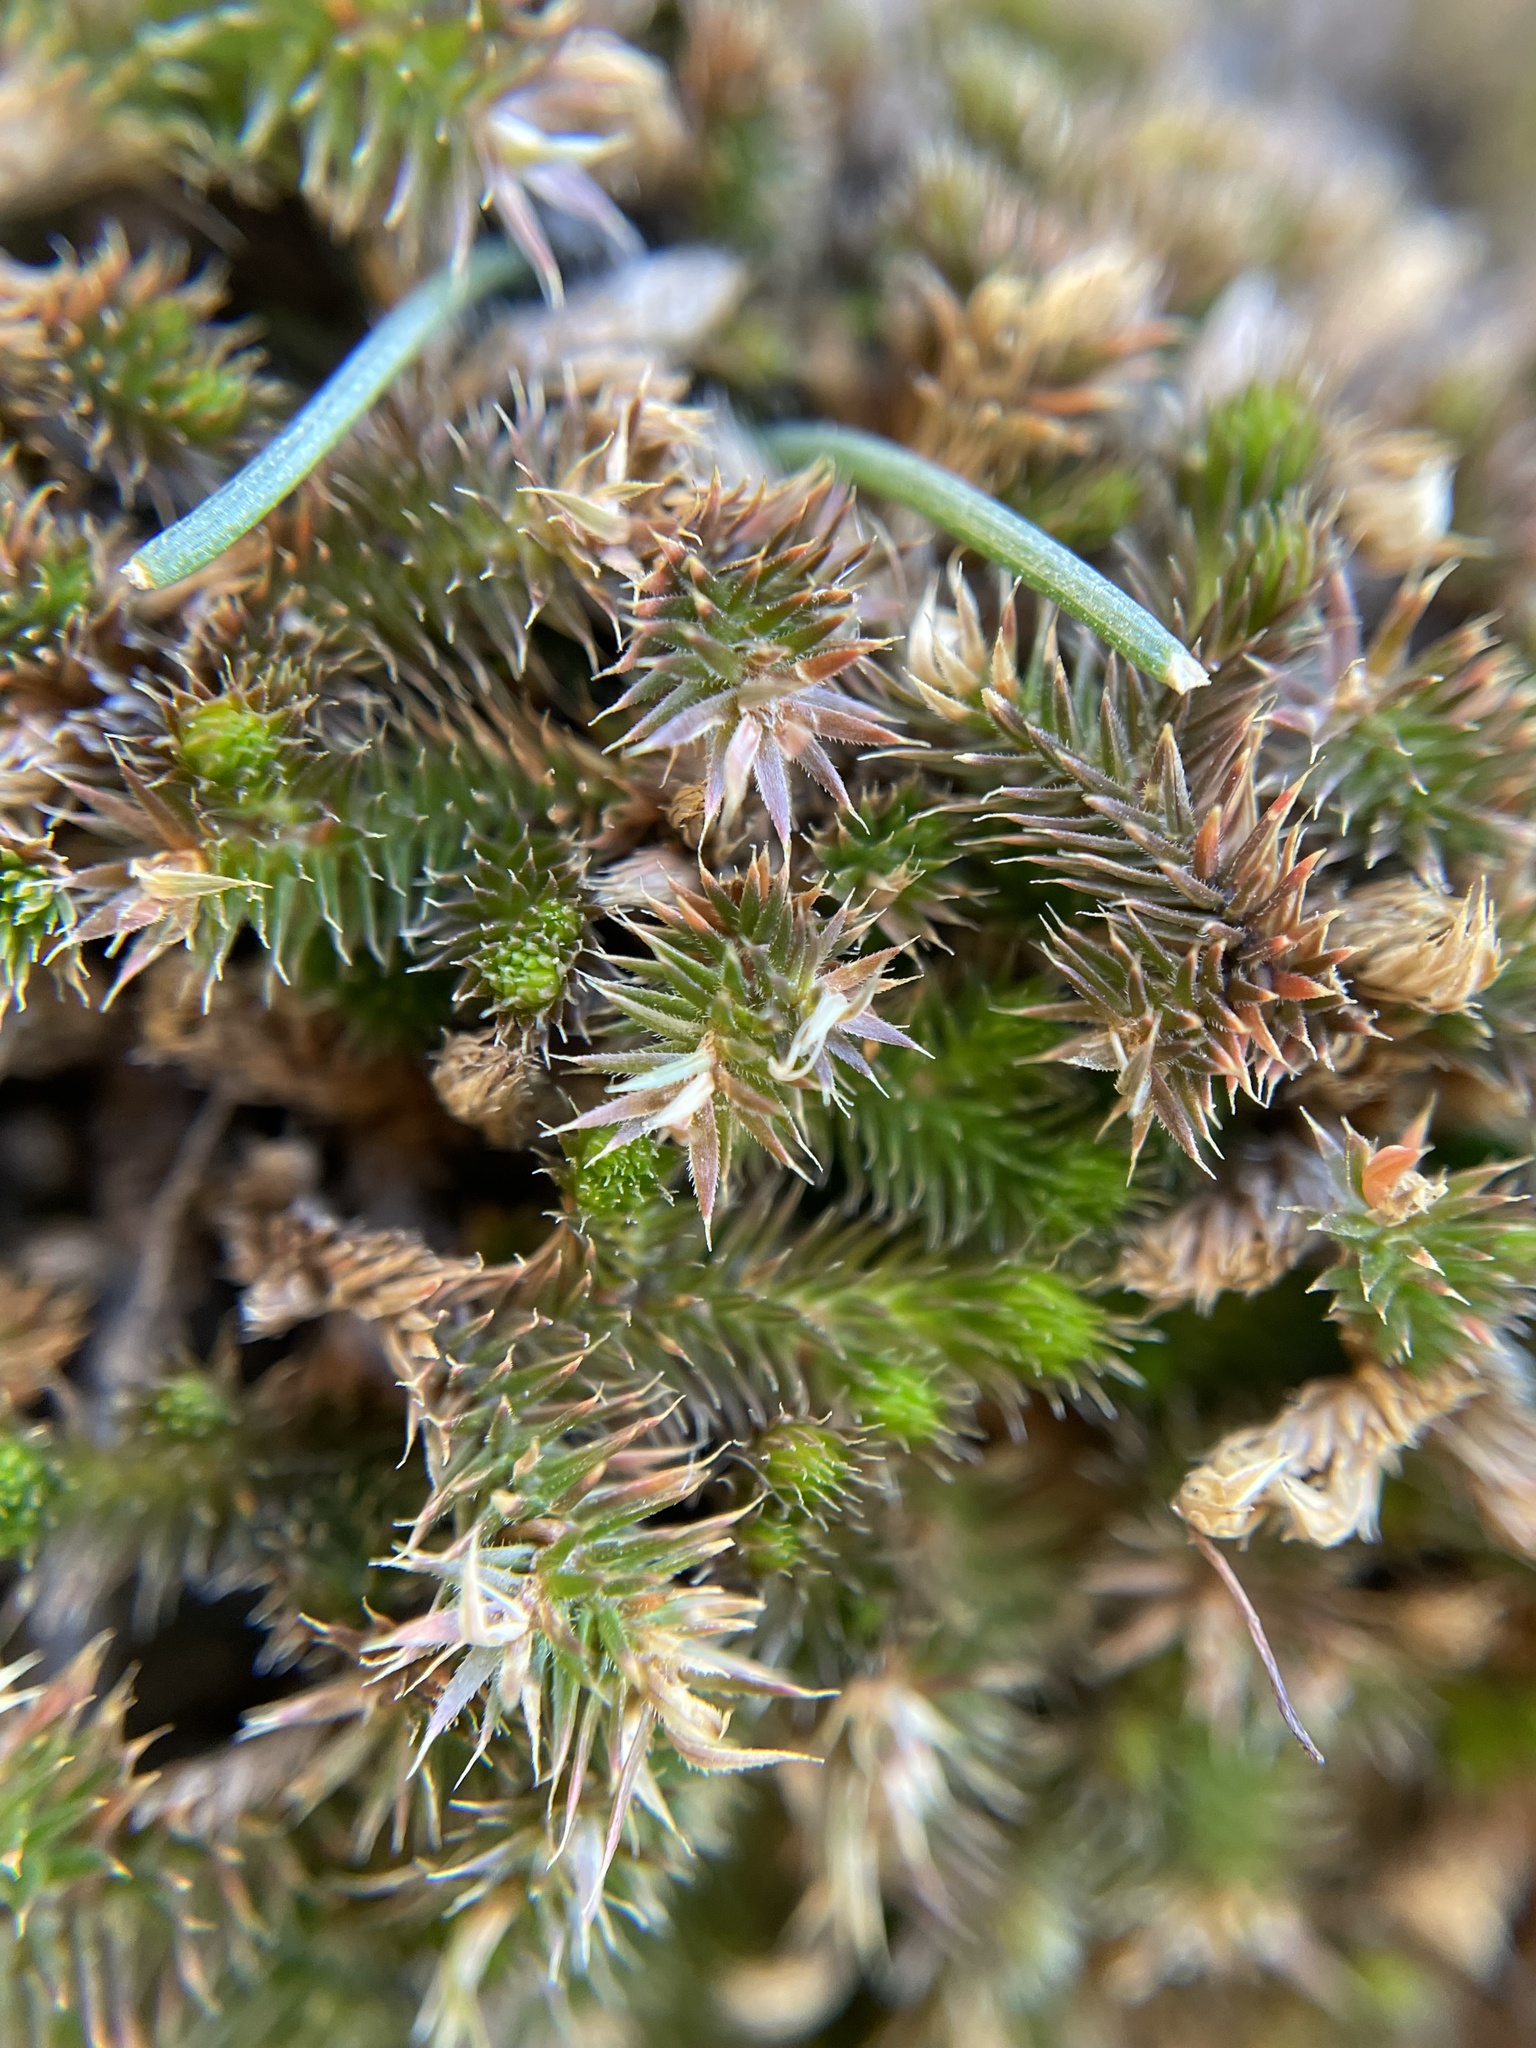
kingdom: Plantae
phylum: Tracheophyta
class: Lycopodiopsida
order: Selaginellales
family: Selaginellaceae
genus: Selaginella
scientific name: Selaginella caffrorum
